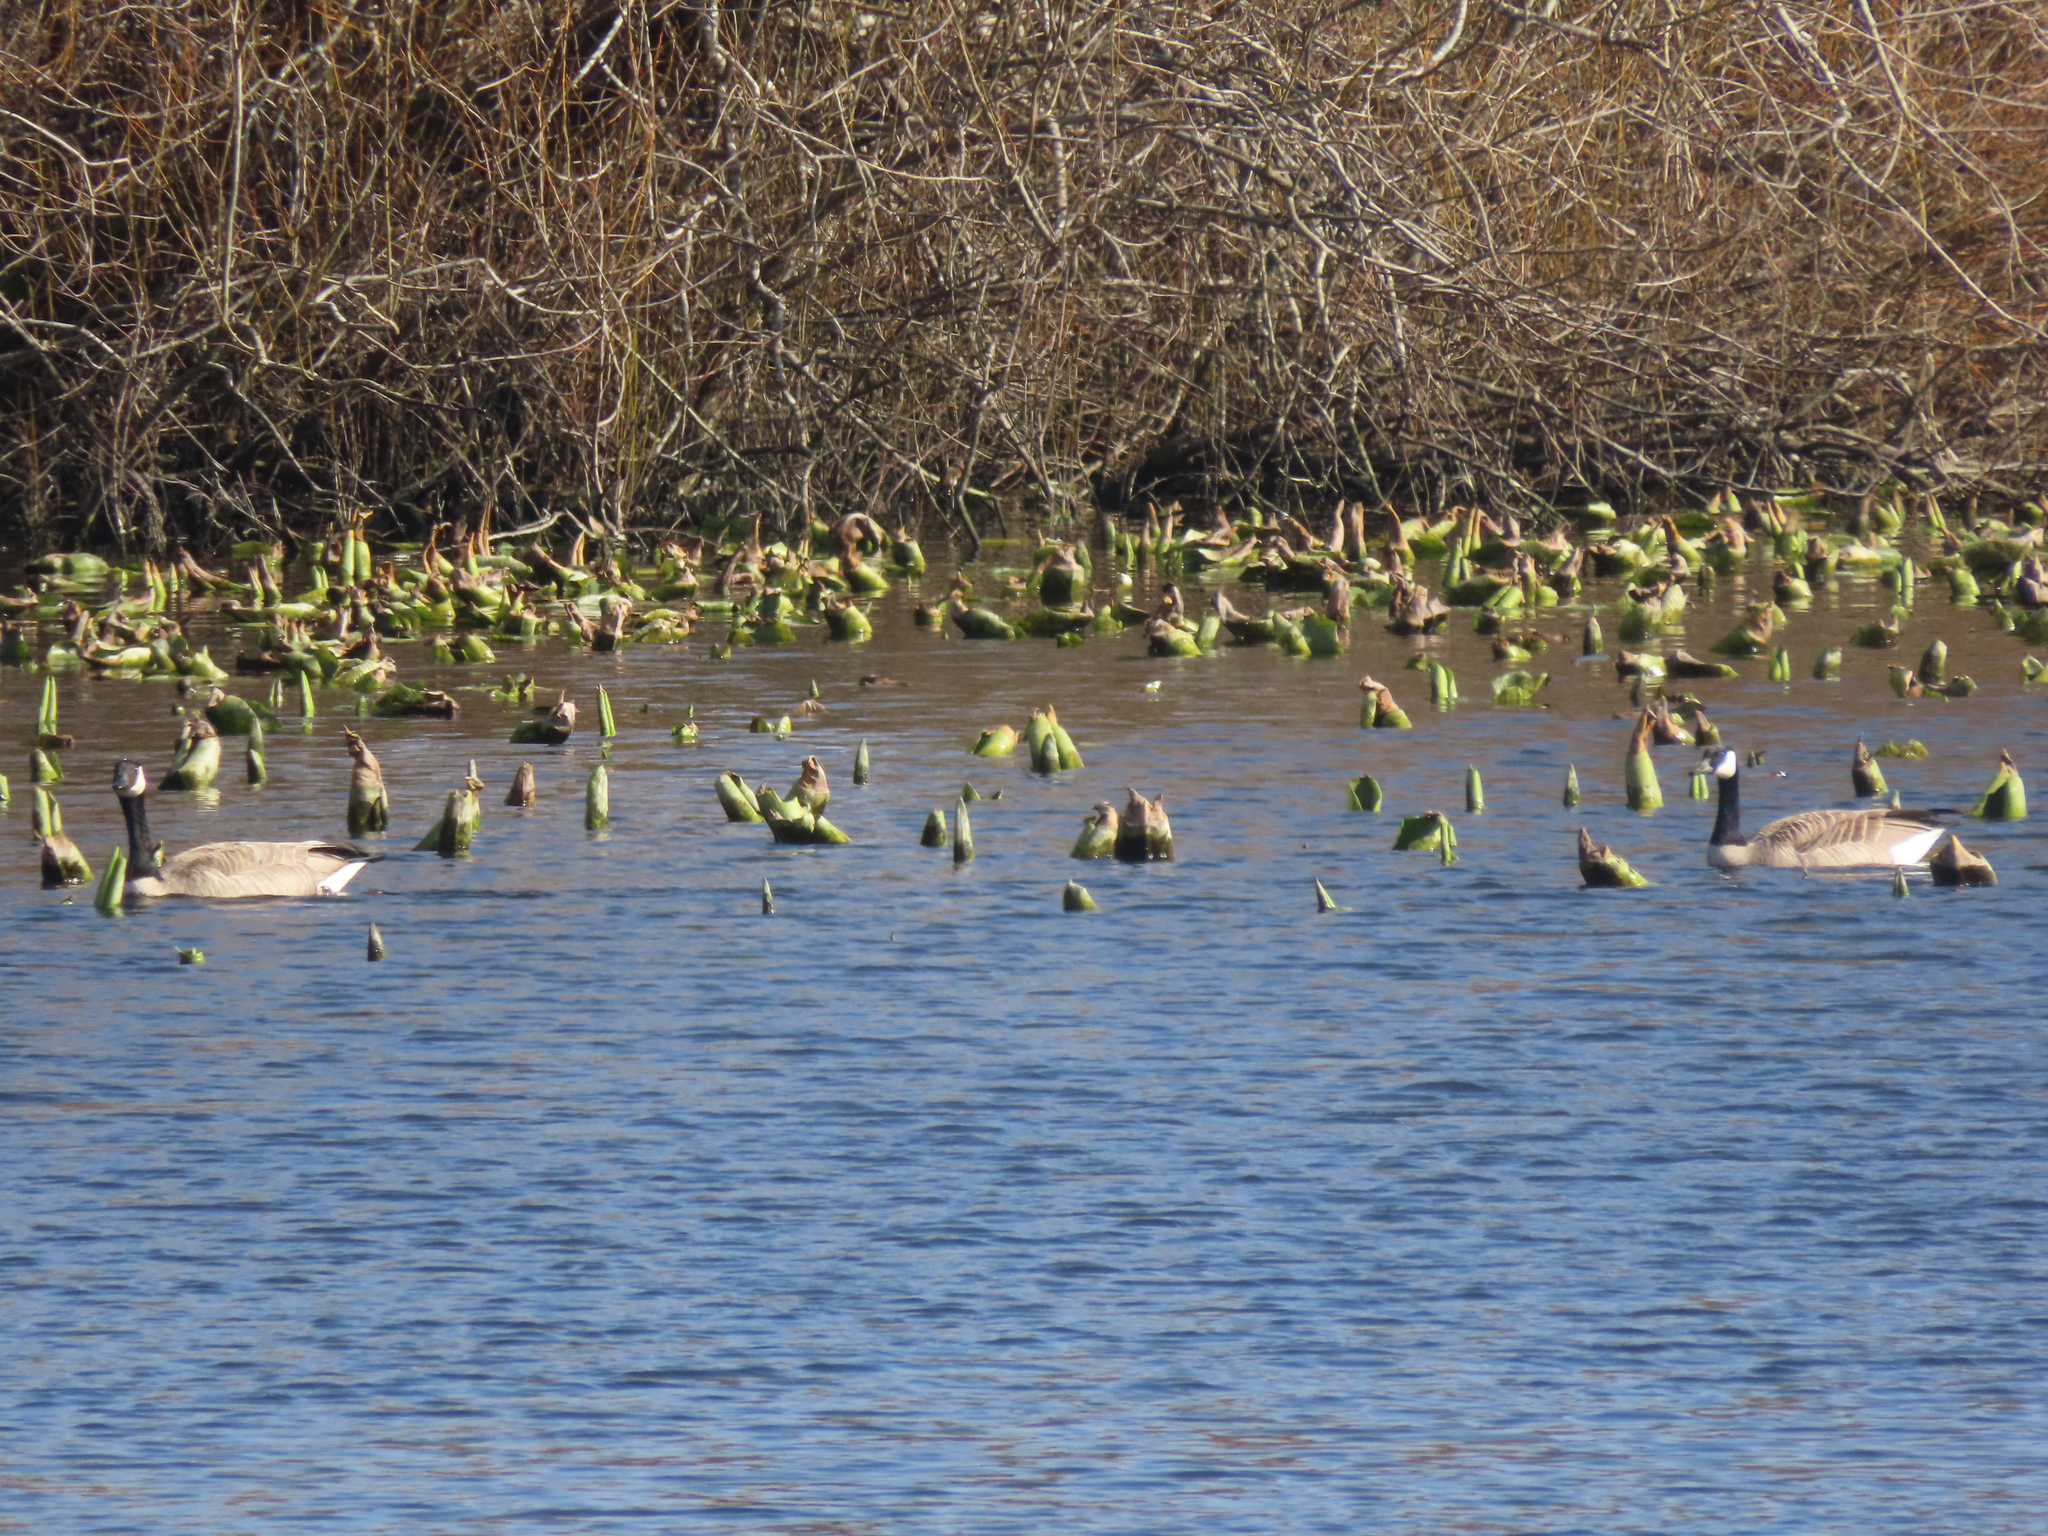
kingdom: Animalia
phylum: Chordata
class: Aves
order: Anseriformes
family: Anatidae
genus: Branta
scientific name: Branta canadensis
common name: Canada goose
